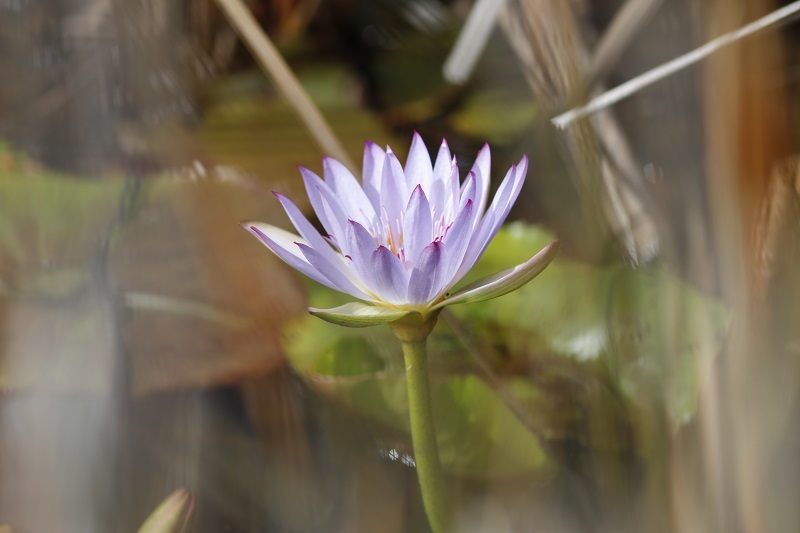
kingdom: Plantae
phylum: Tracheophyta
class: Magnoliopsida
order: Nymphaeales
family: Nymphaeaceae
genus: Nymphaea
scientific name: Nymphaea nouchali
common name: Blue lotus
